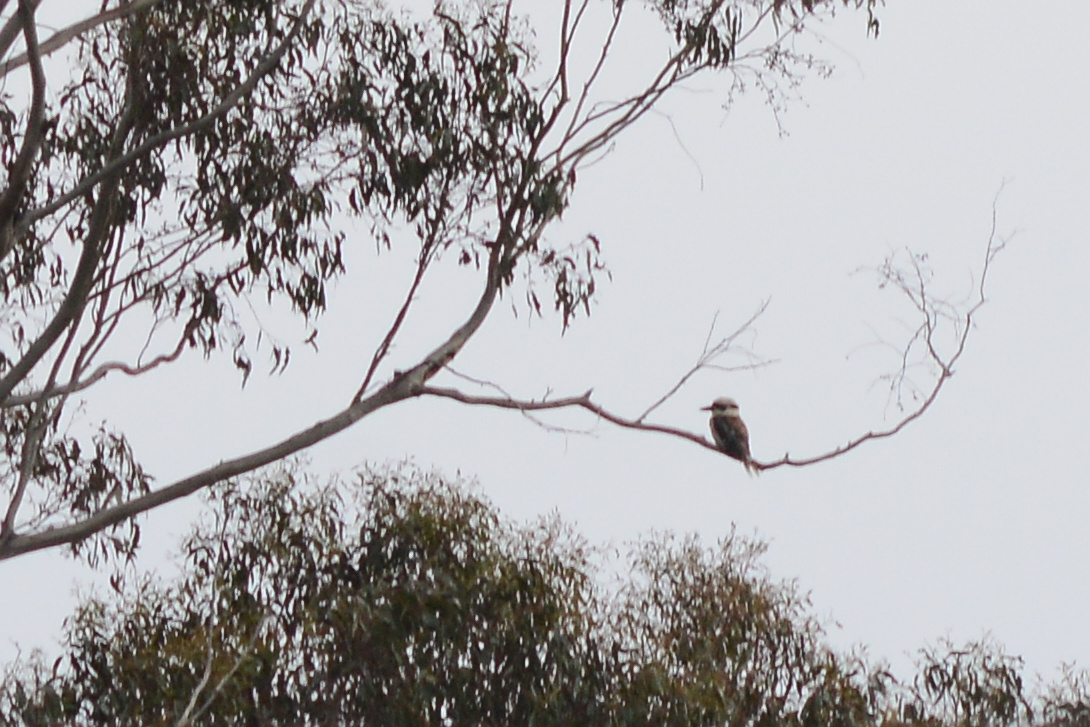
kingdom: Animalia
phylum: Chordata
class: Aves
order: Coraciiformes
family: Alcedinidae
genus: Dacelo
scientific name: Dacelo novaeguineae
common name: Laughing kookaburra
